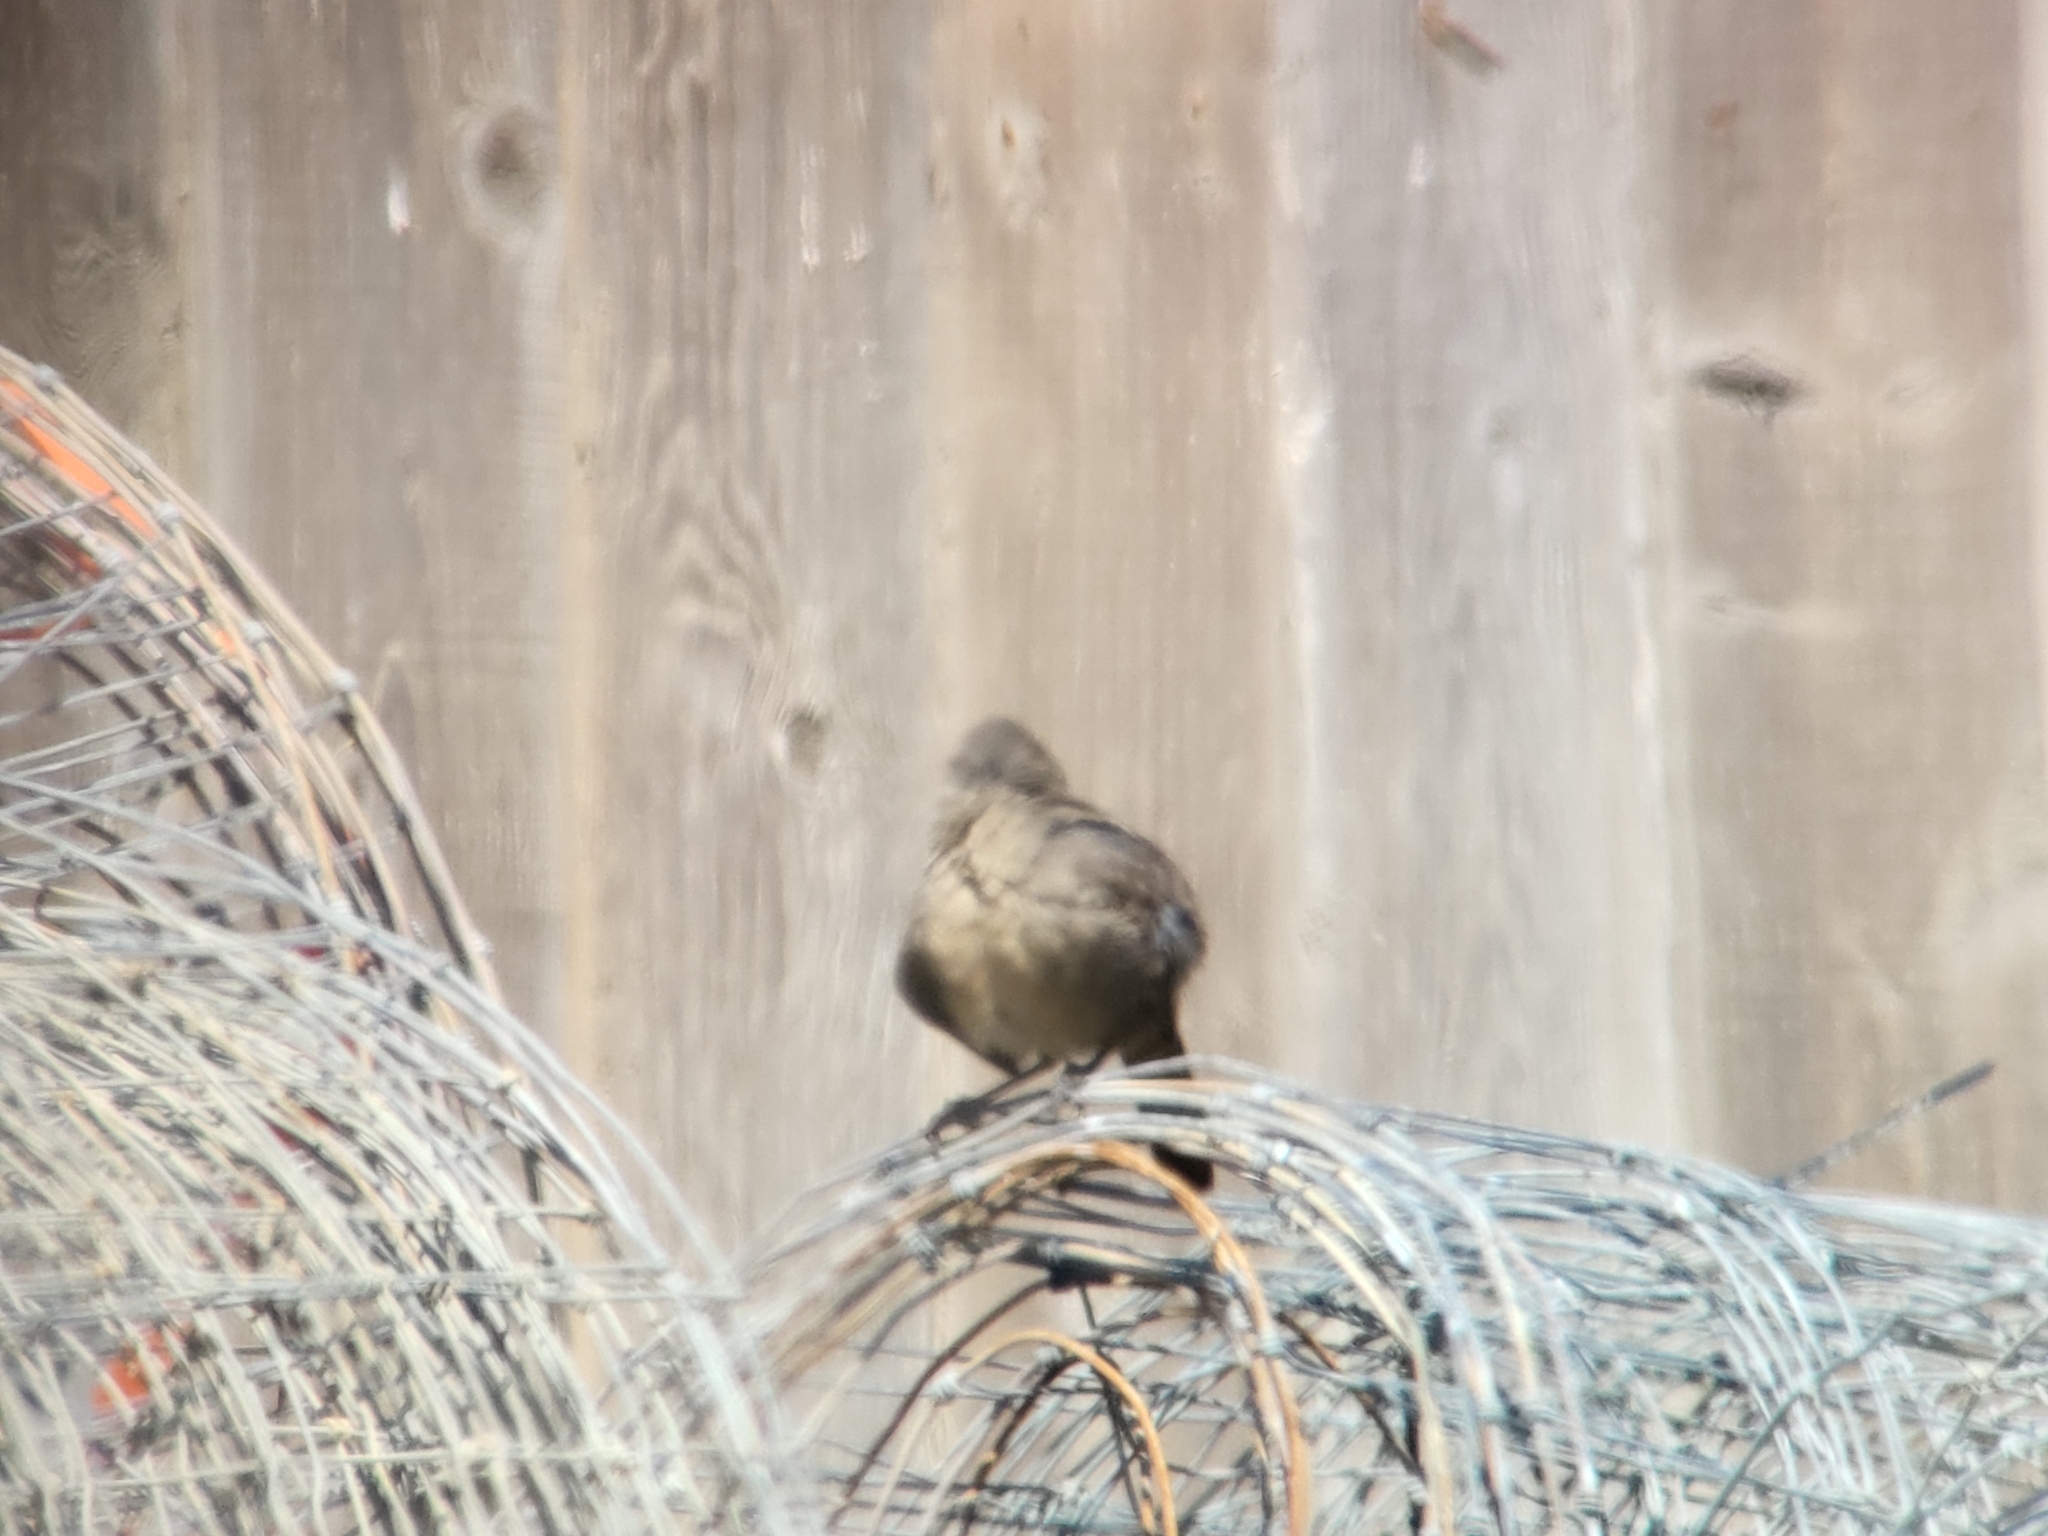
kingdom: Animalia
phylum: Chordata
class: Aves
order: Passeriformes
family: Mimidae
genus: Toxostoma
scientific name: Toxostoma redivivum
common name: California thrasher
